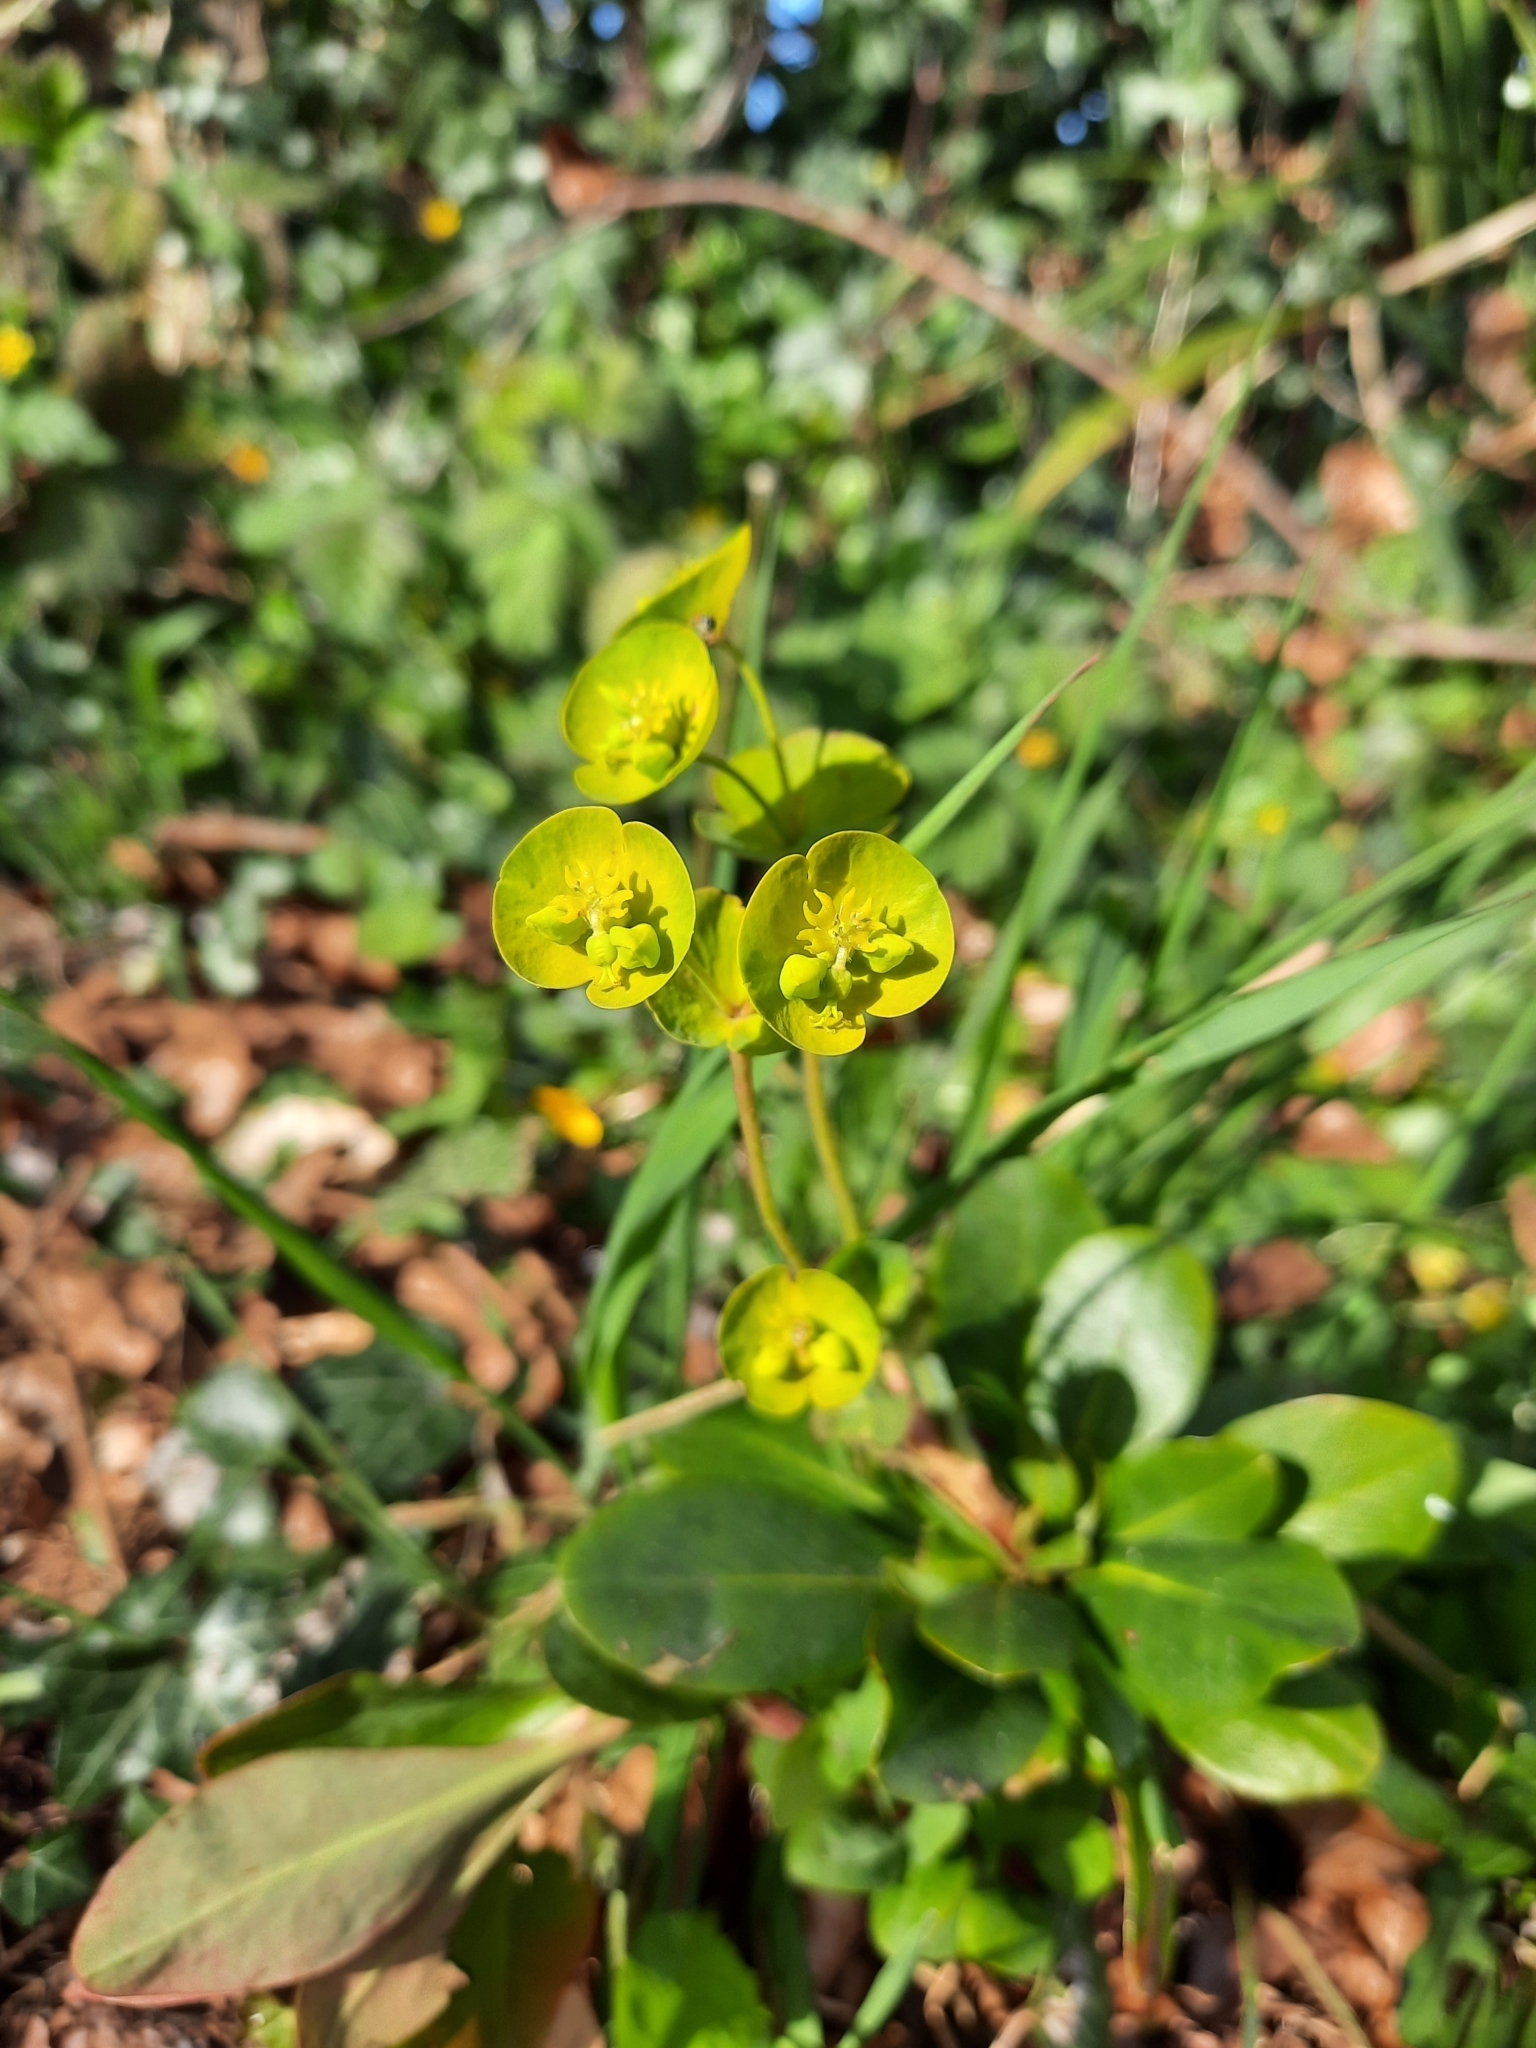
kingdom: Plantae
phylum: Tracheophyta
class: Magnoliopsida
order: Malpighiales
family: Euphorbiaceae
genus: Euphorbia
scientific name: Euphorbia amygdaloides
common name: Wood spurge
